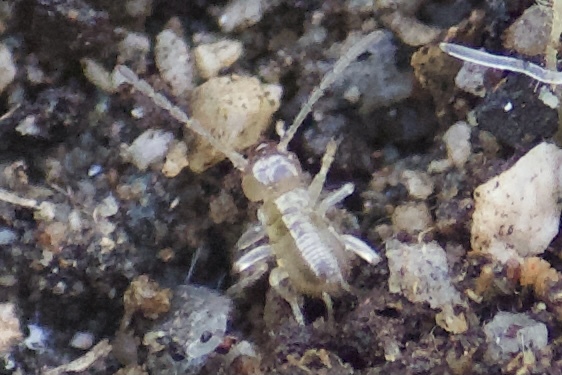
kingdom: Animalia
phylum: Arthropoda
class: Insecta
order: Dermaptera
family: Forficulidae
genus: Forficula
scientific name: Forficula dentata
